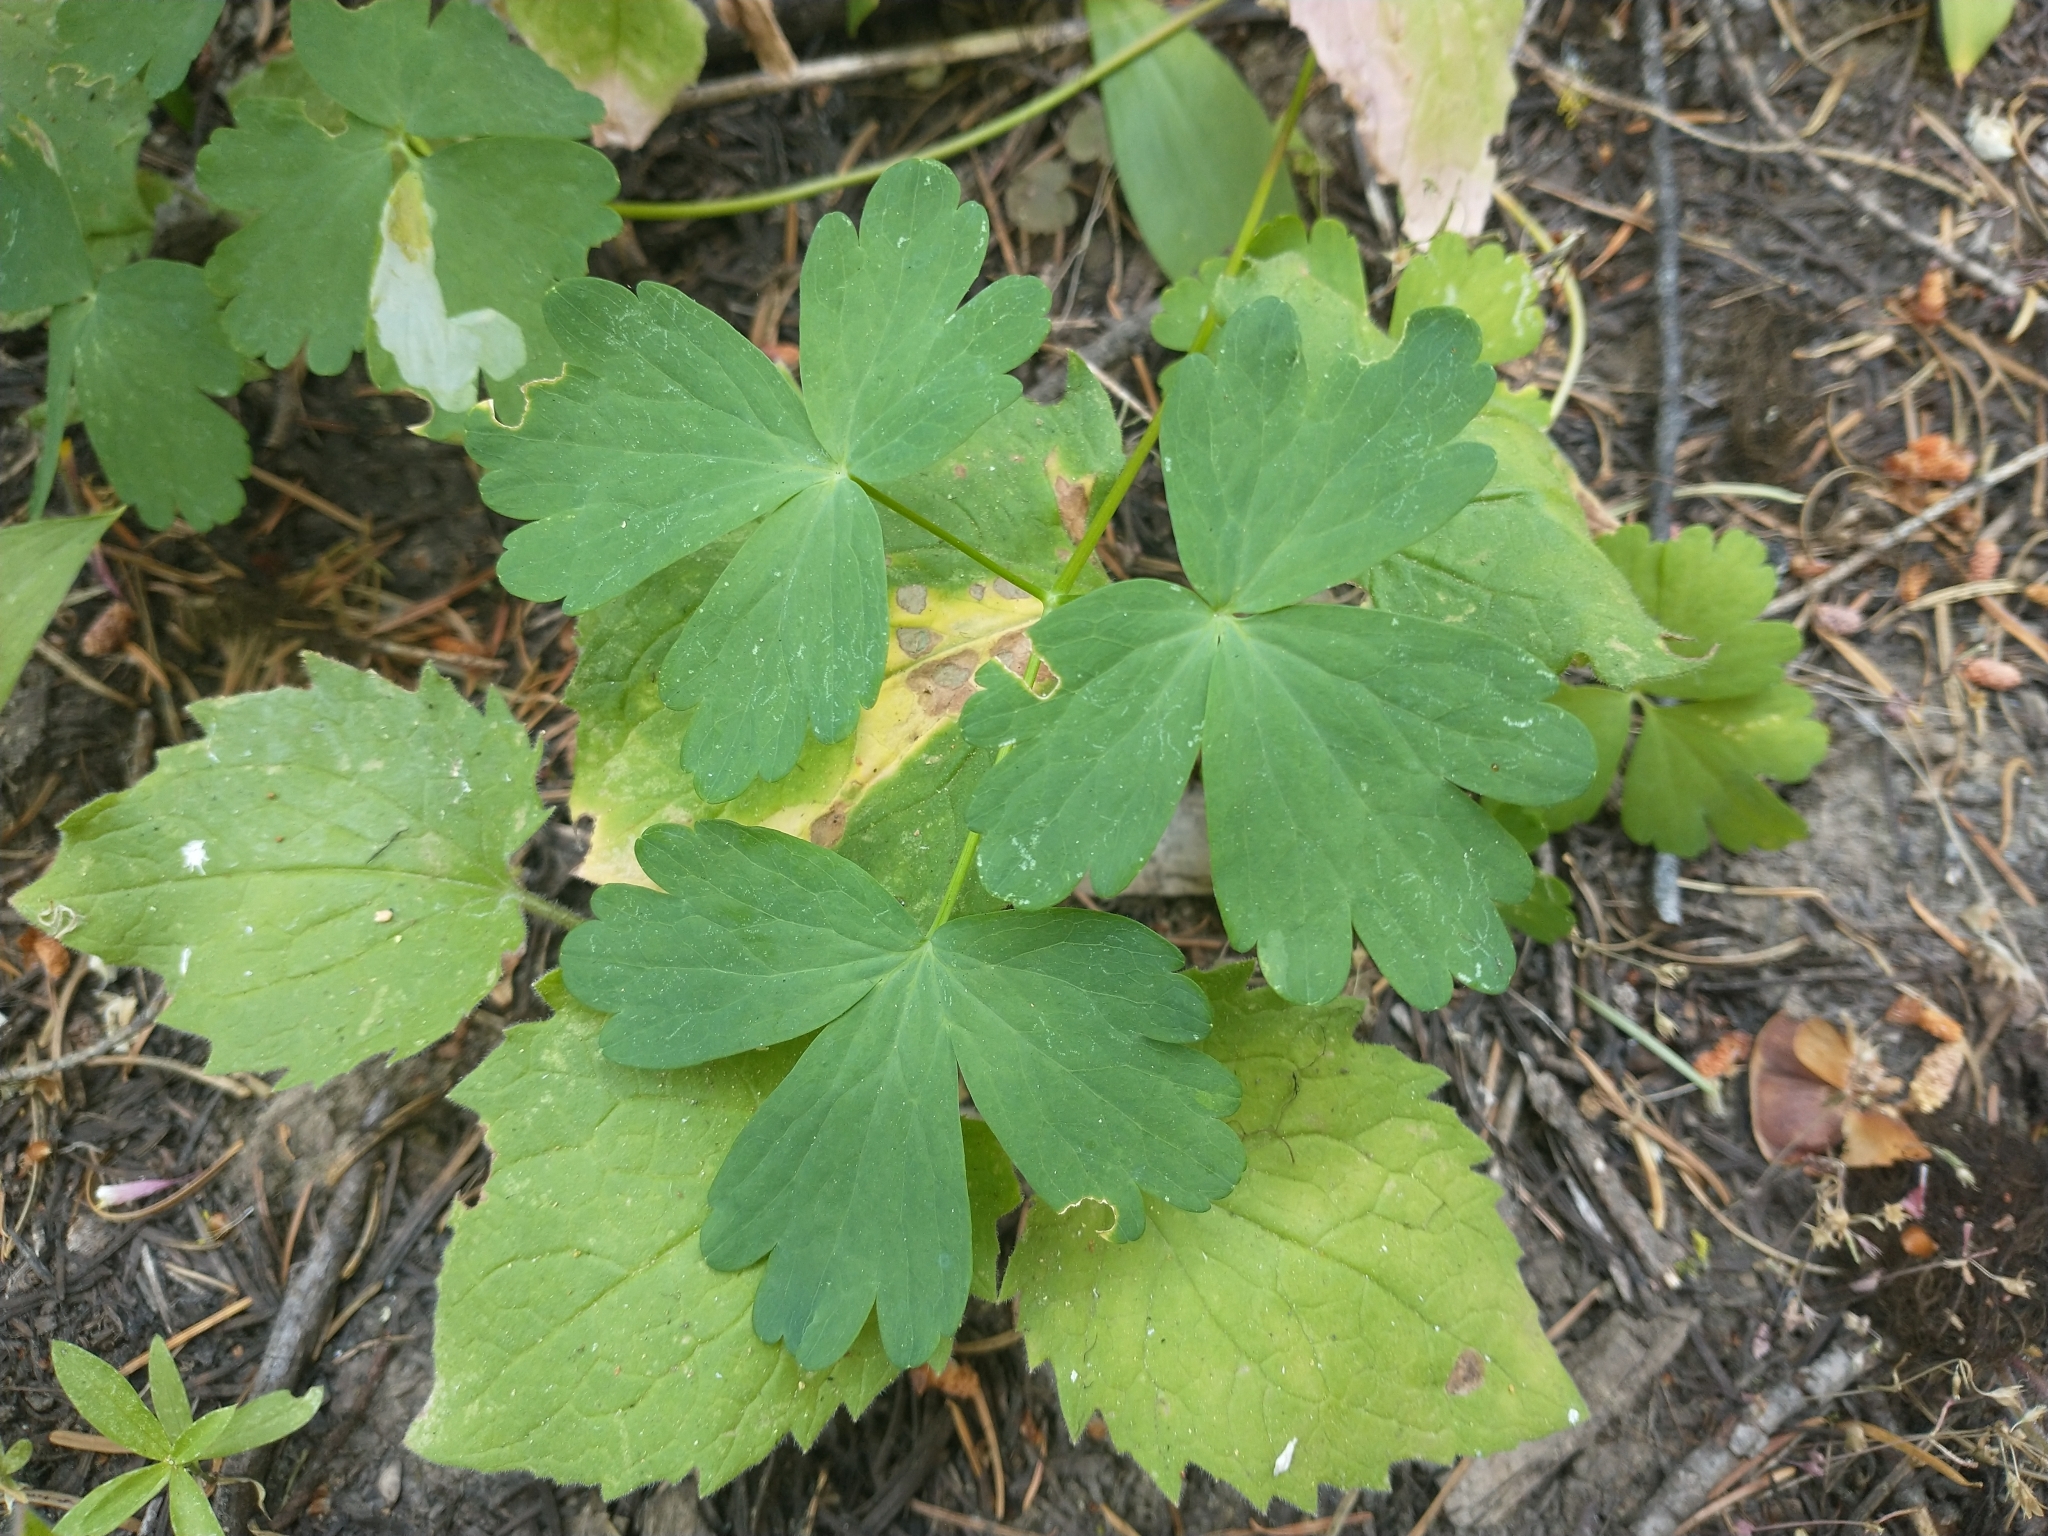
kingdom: Plantae
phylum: Tracheophyta
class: Magnoliopsida
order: Ranunculales
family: Ranunculaceae
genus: Aquilegia
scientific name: Aquilegia formosa
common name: Sitka columbine
